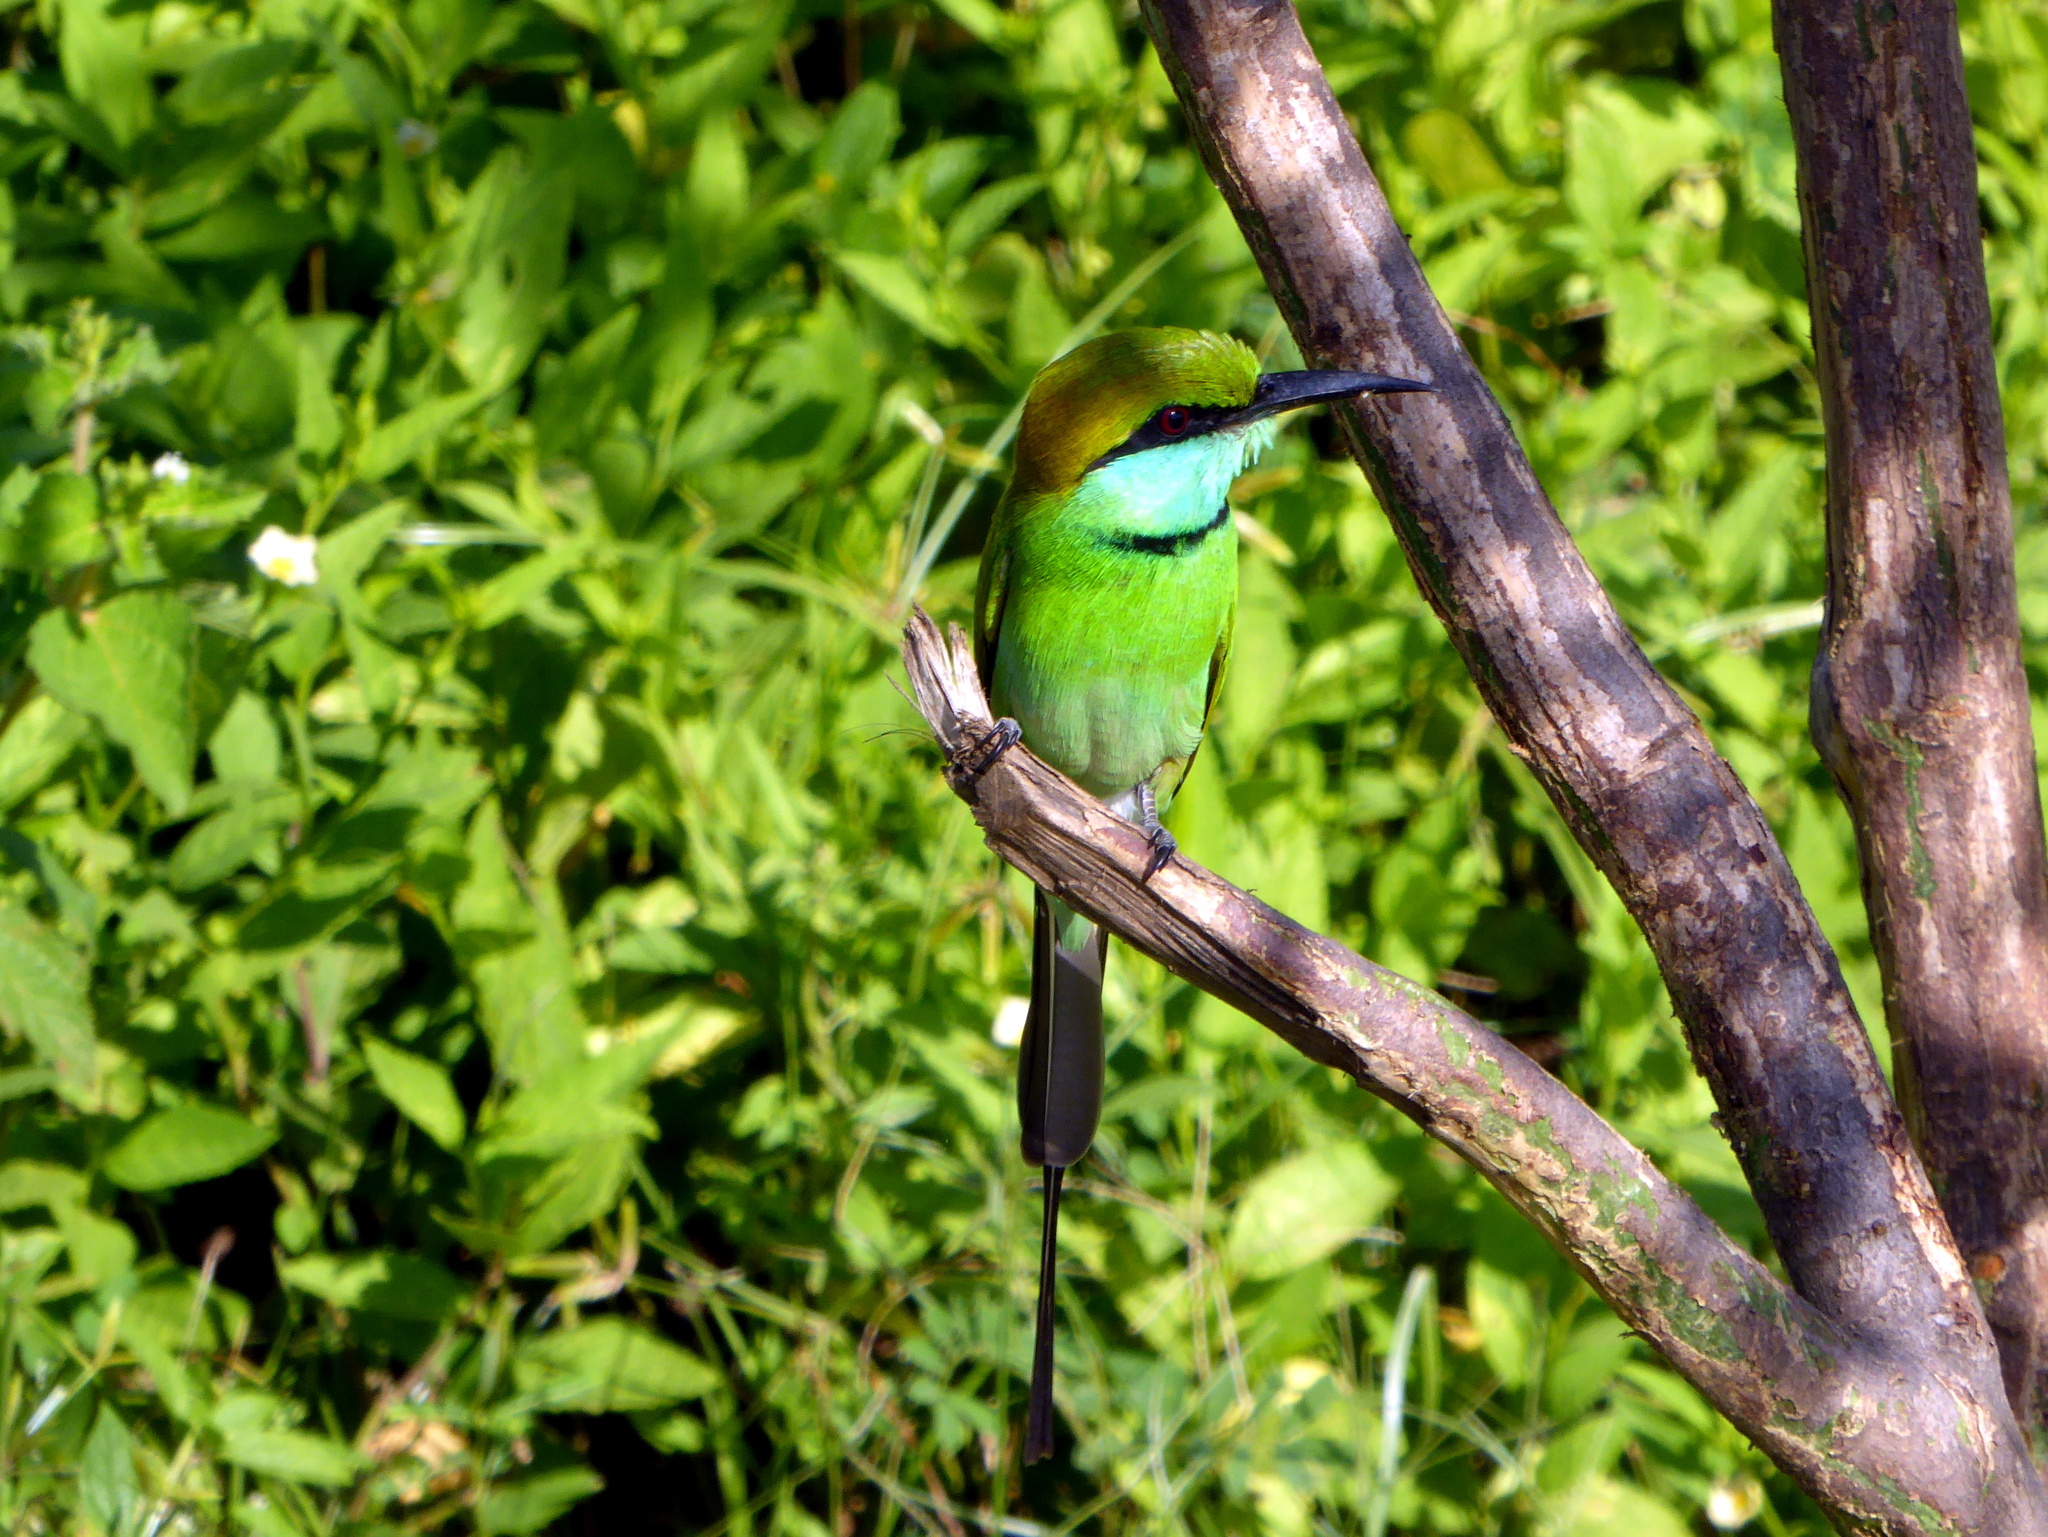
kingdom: Animalia
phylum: Chordata
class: Aves
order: Coraciiformes
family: Meropidae
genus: Merops
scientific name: Merops orientalis
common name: Green bee-eater
